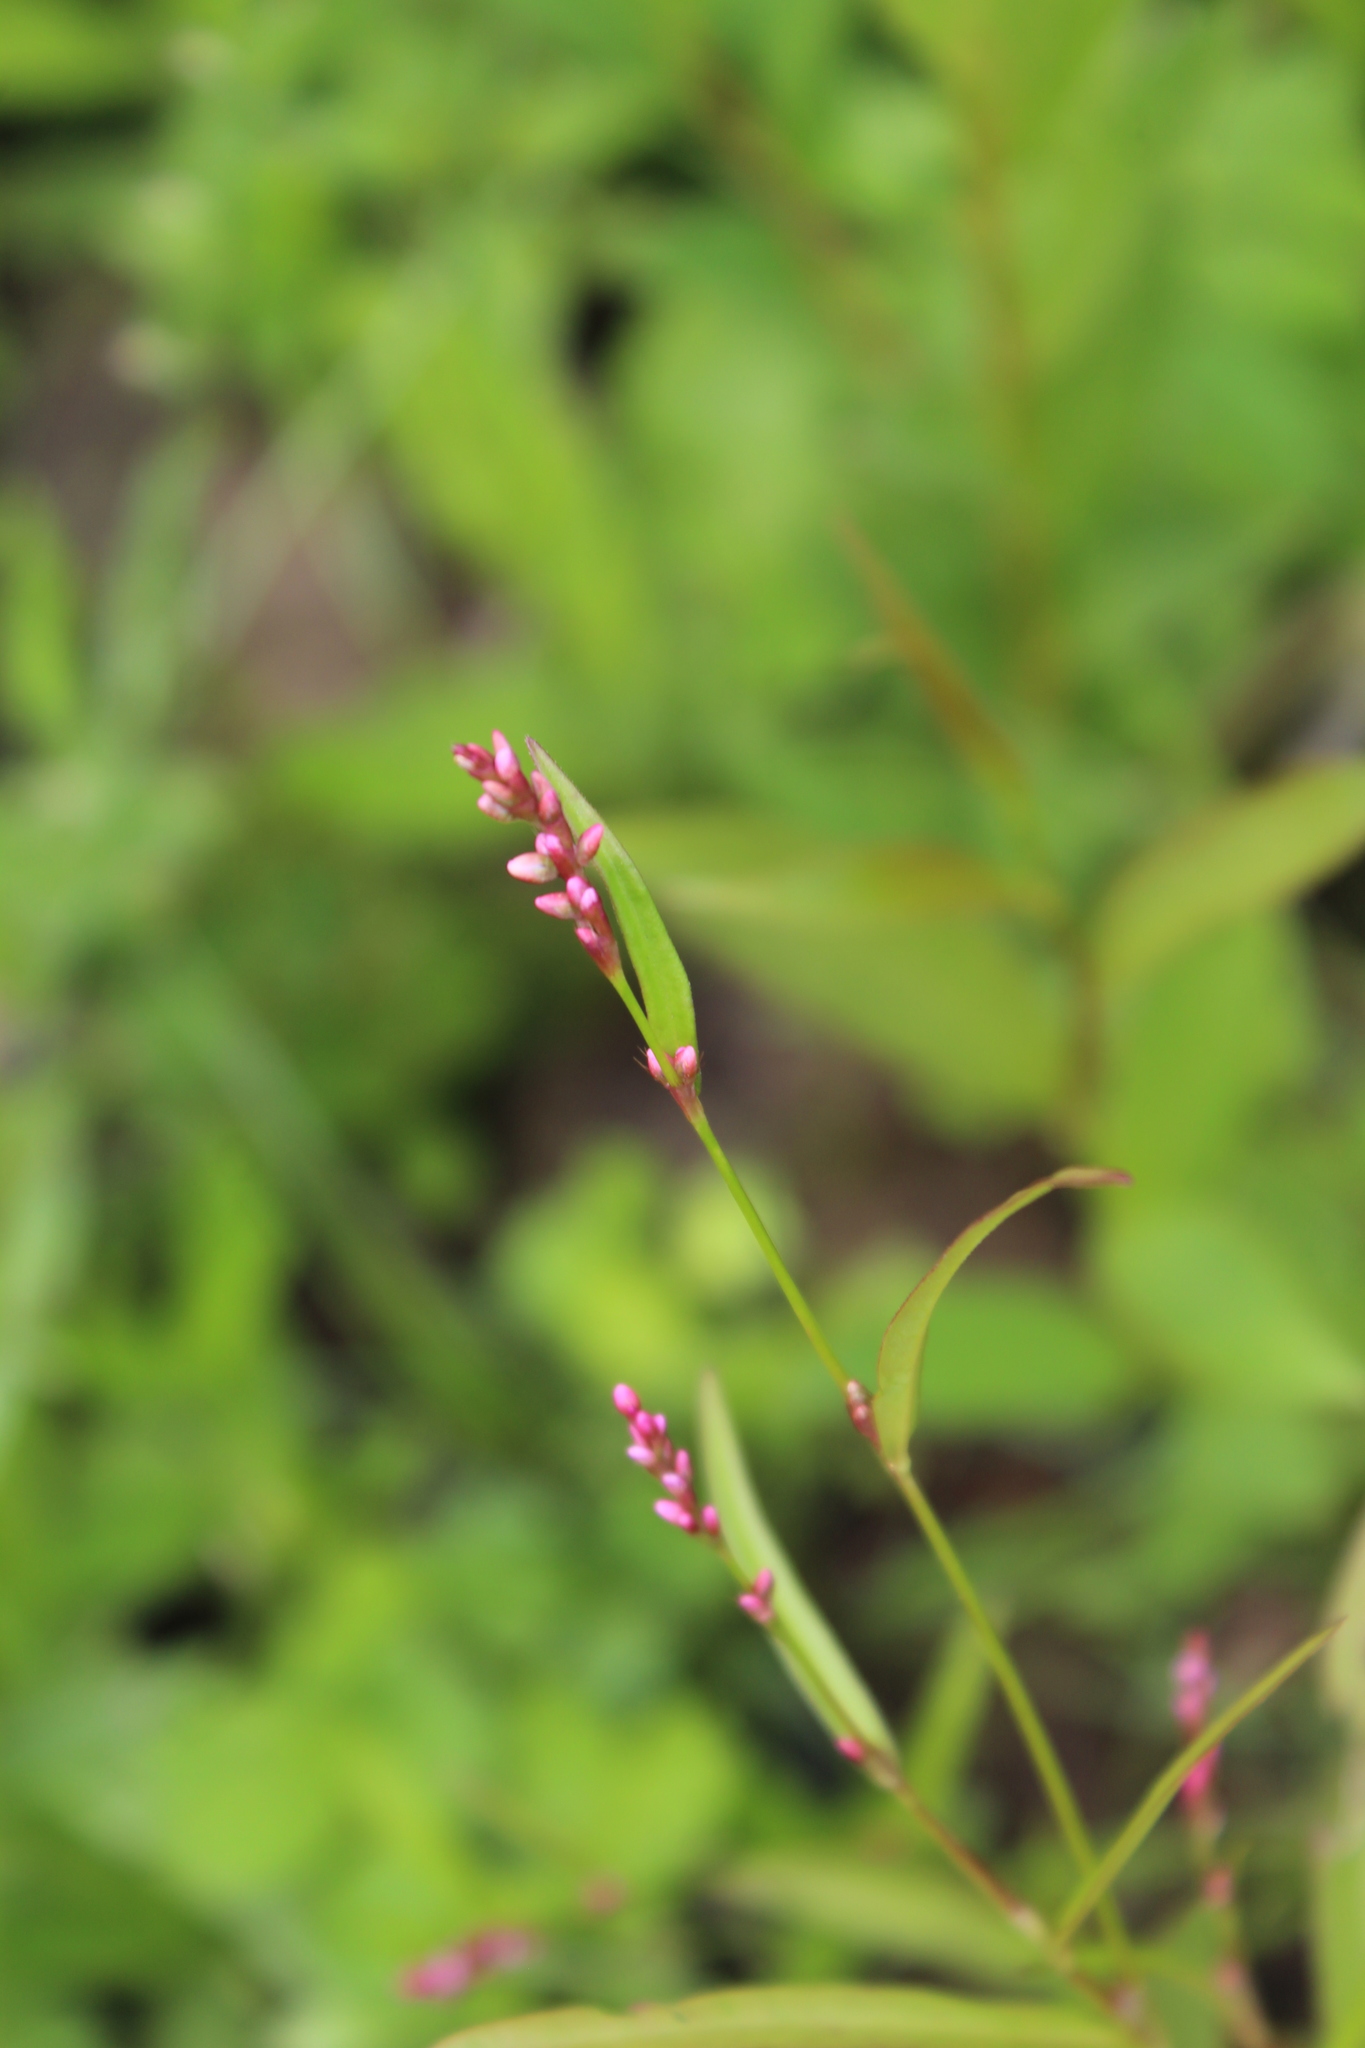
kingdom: Plantae
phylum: Tracheophyta
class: Magnoliopsida
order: Caryophyllales
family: Polygonaceae
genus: Persicaria
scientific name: Persicaria minor
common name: Small water-pepper
